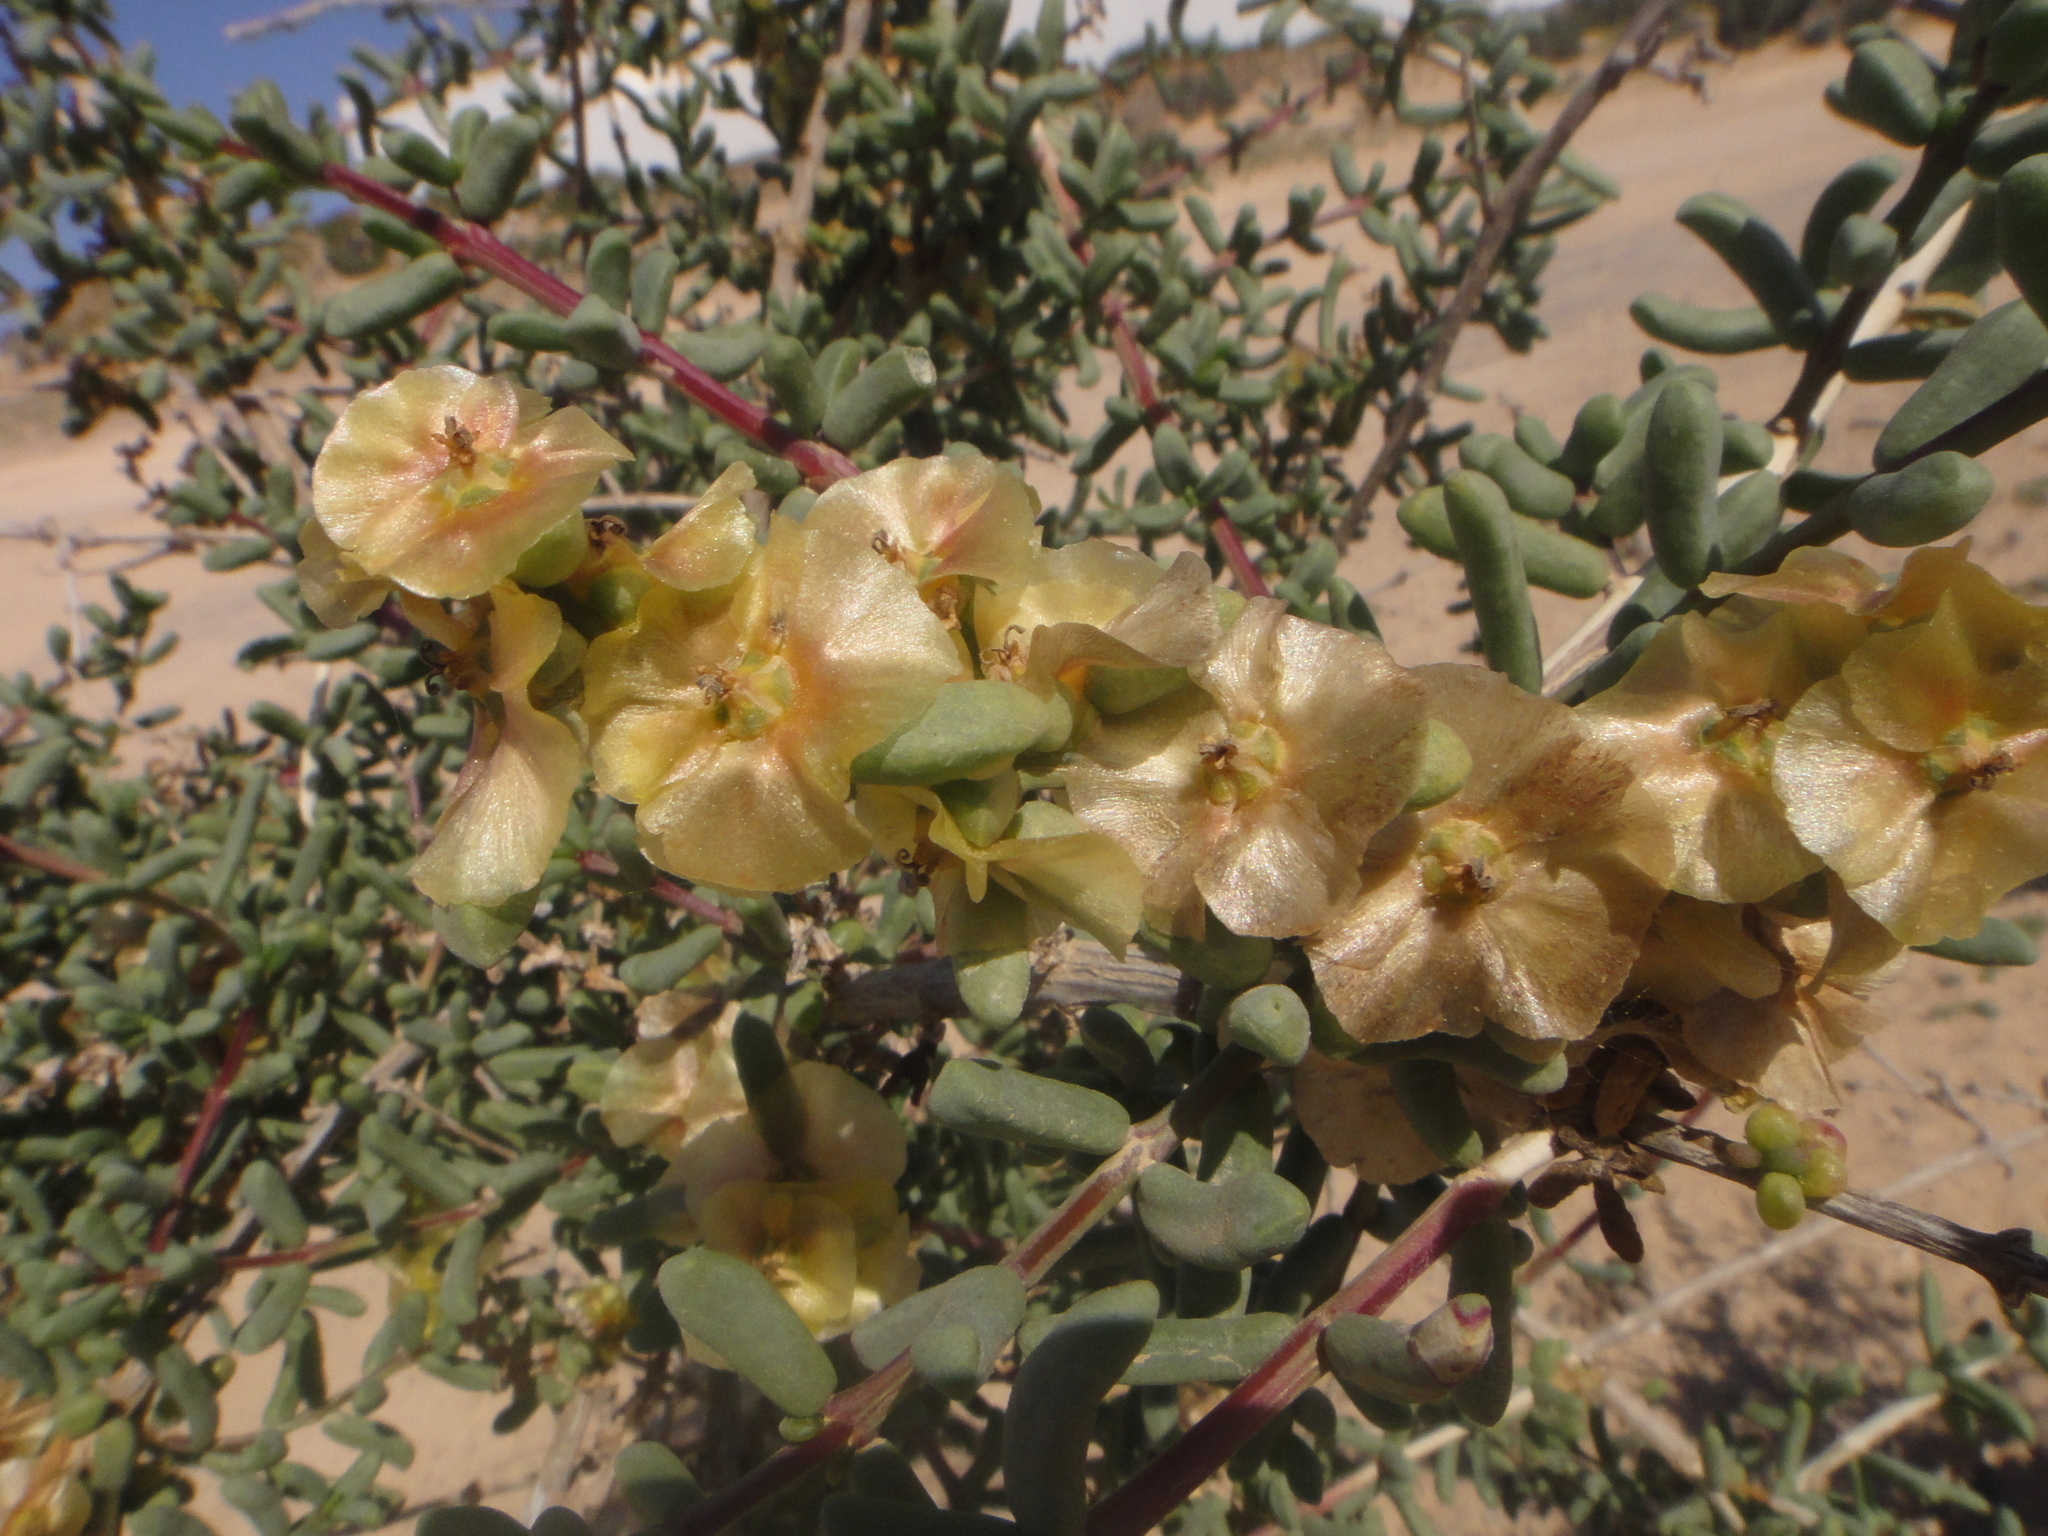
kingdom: Plantae
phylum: Tracheophyta
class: Magnoliopsida
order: Caryophyllales
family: Amaranthaceae
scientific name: Amaranthaceae
